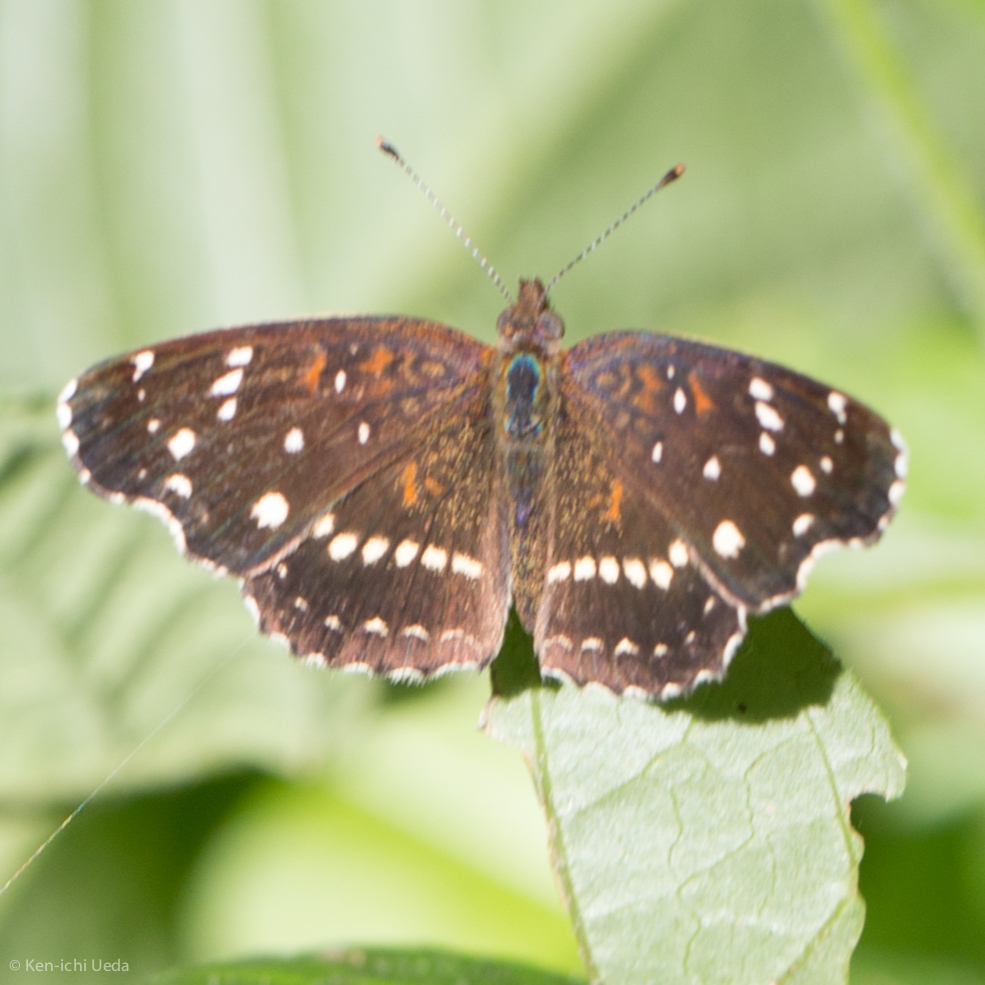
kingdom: Animalia
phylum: Arthropoda
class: Insecta
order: Lepidoptera
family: Nymphalidae
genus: Anthanassa
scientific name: Anthanassa texana
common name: Texan crescent
